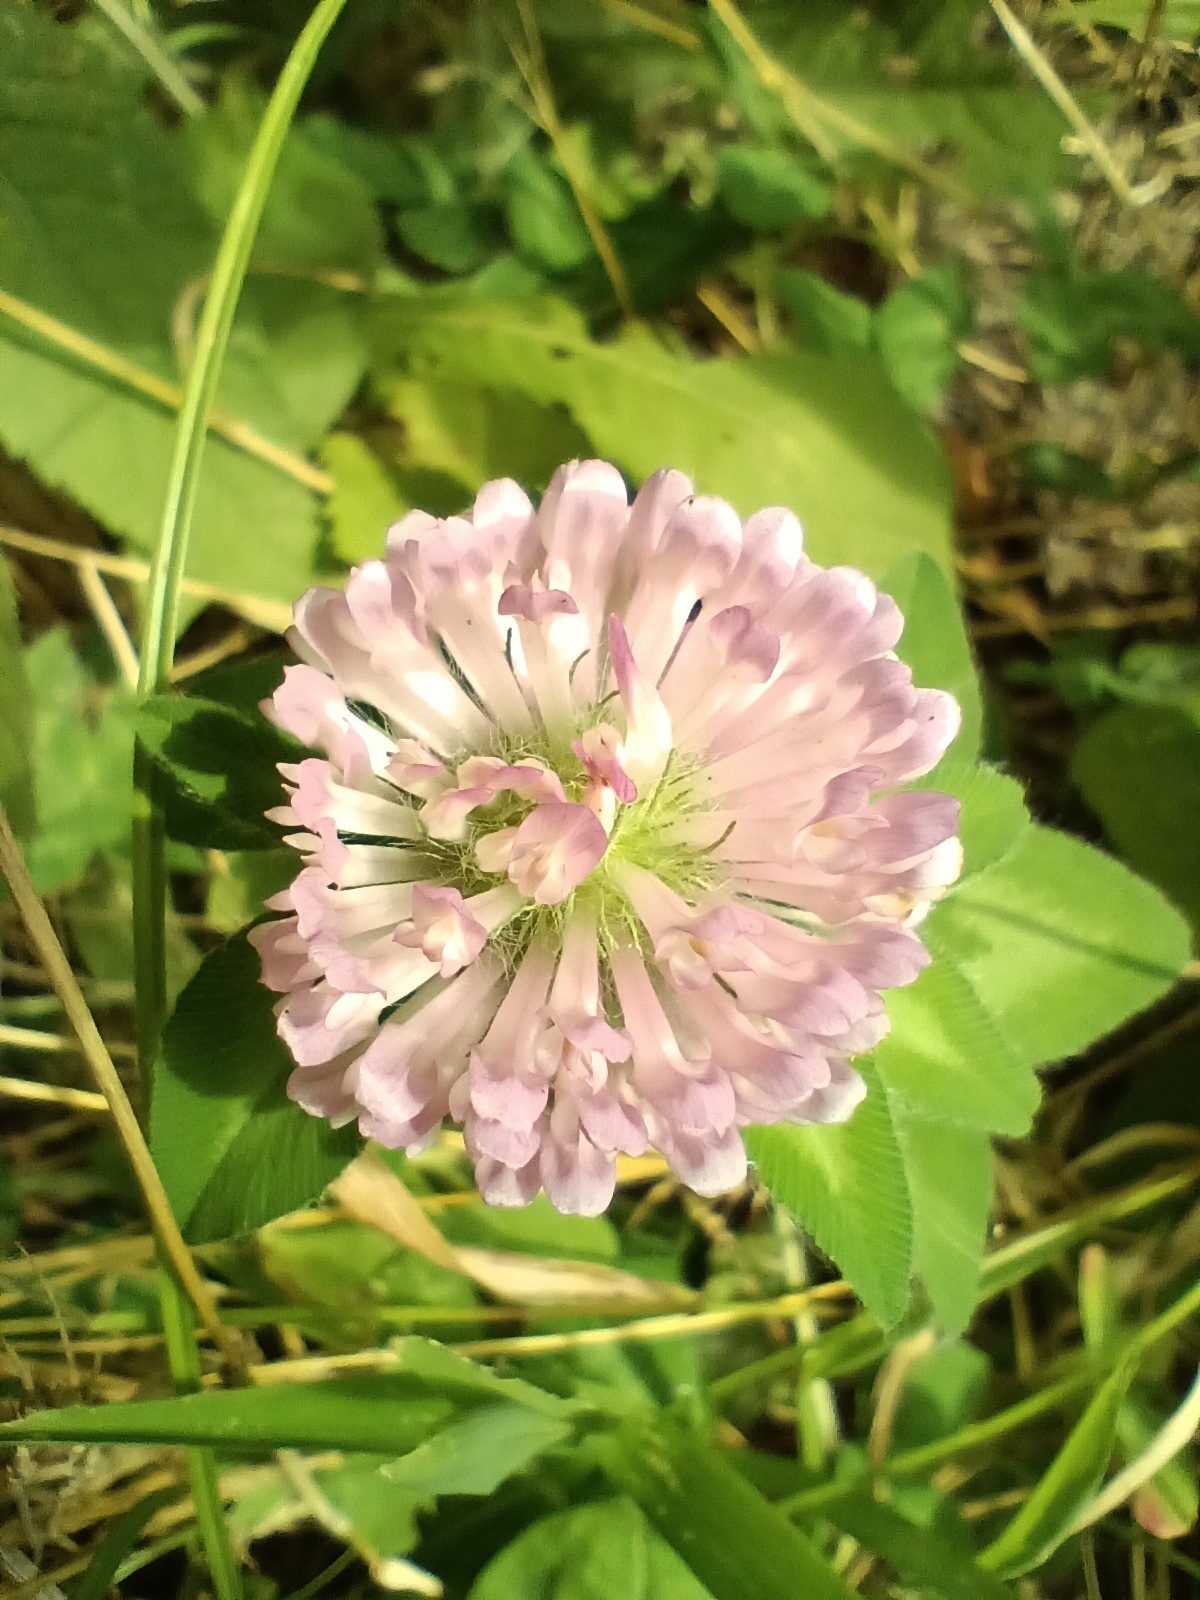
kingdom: Plantae
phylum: Tracheophyta
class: Magnoliopsida
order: Fabales
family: Fabaceae
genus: Trifolium
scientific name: Trifolium pratense
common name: Red clover
